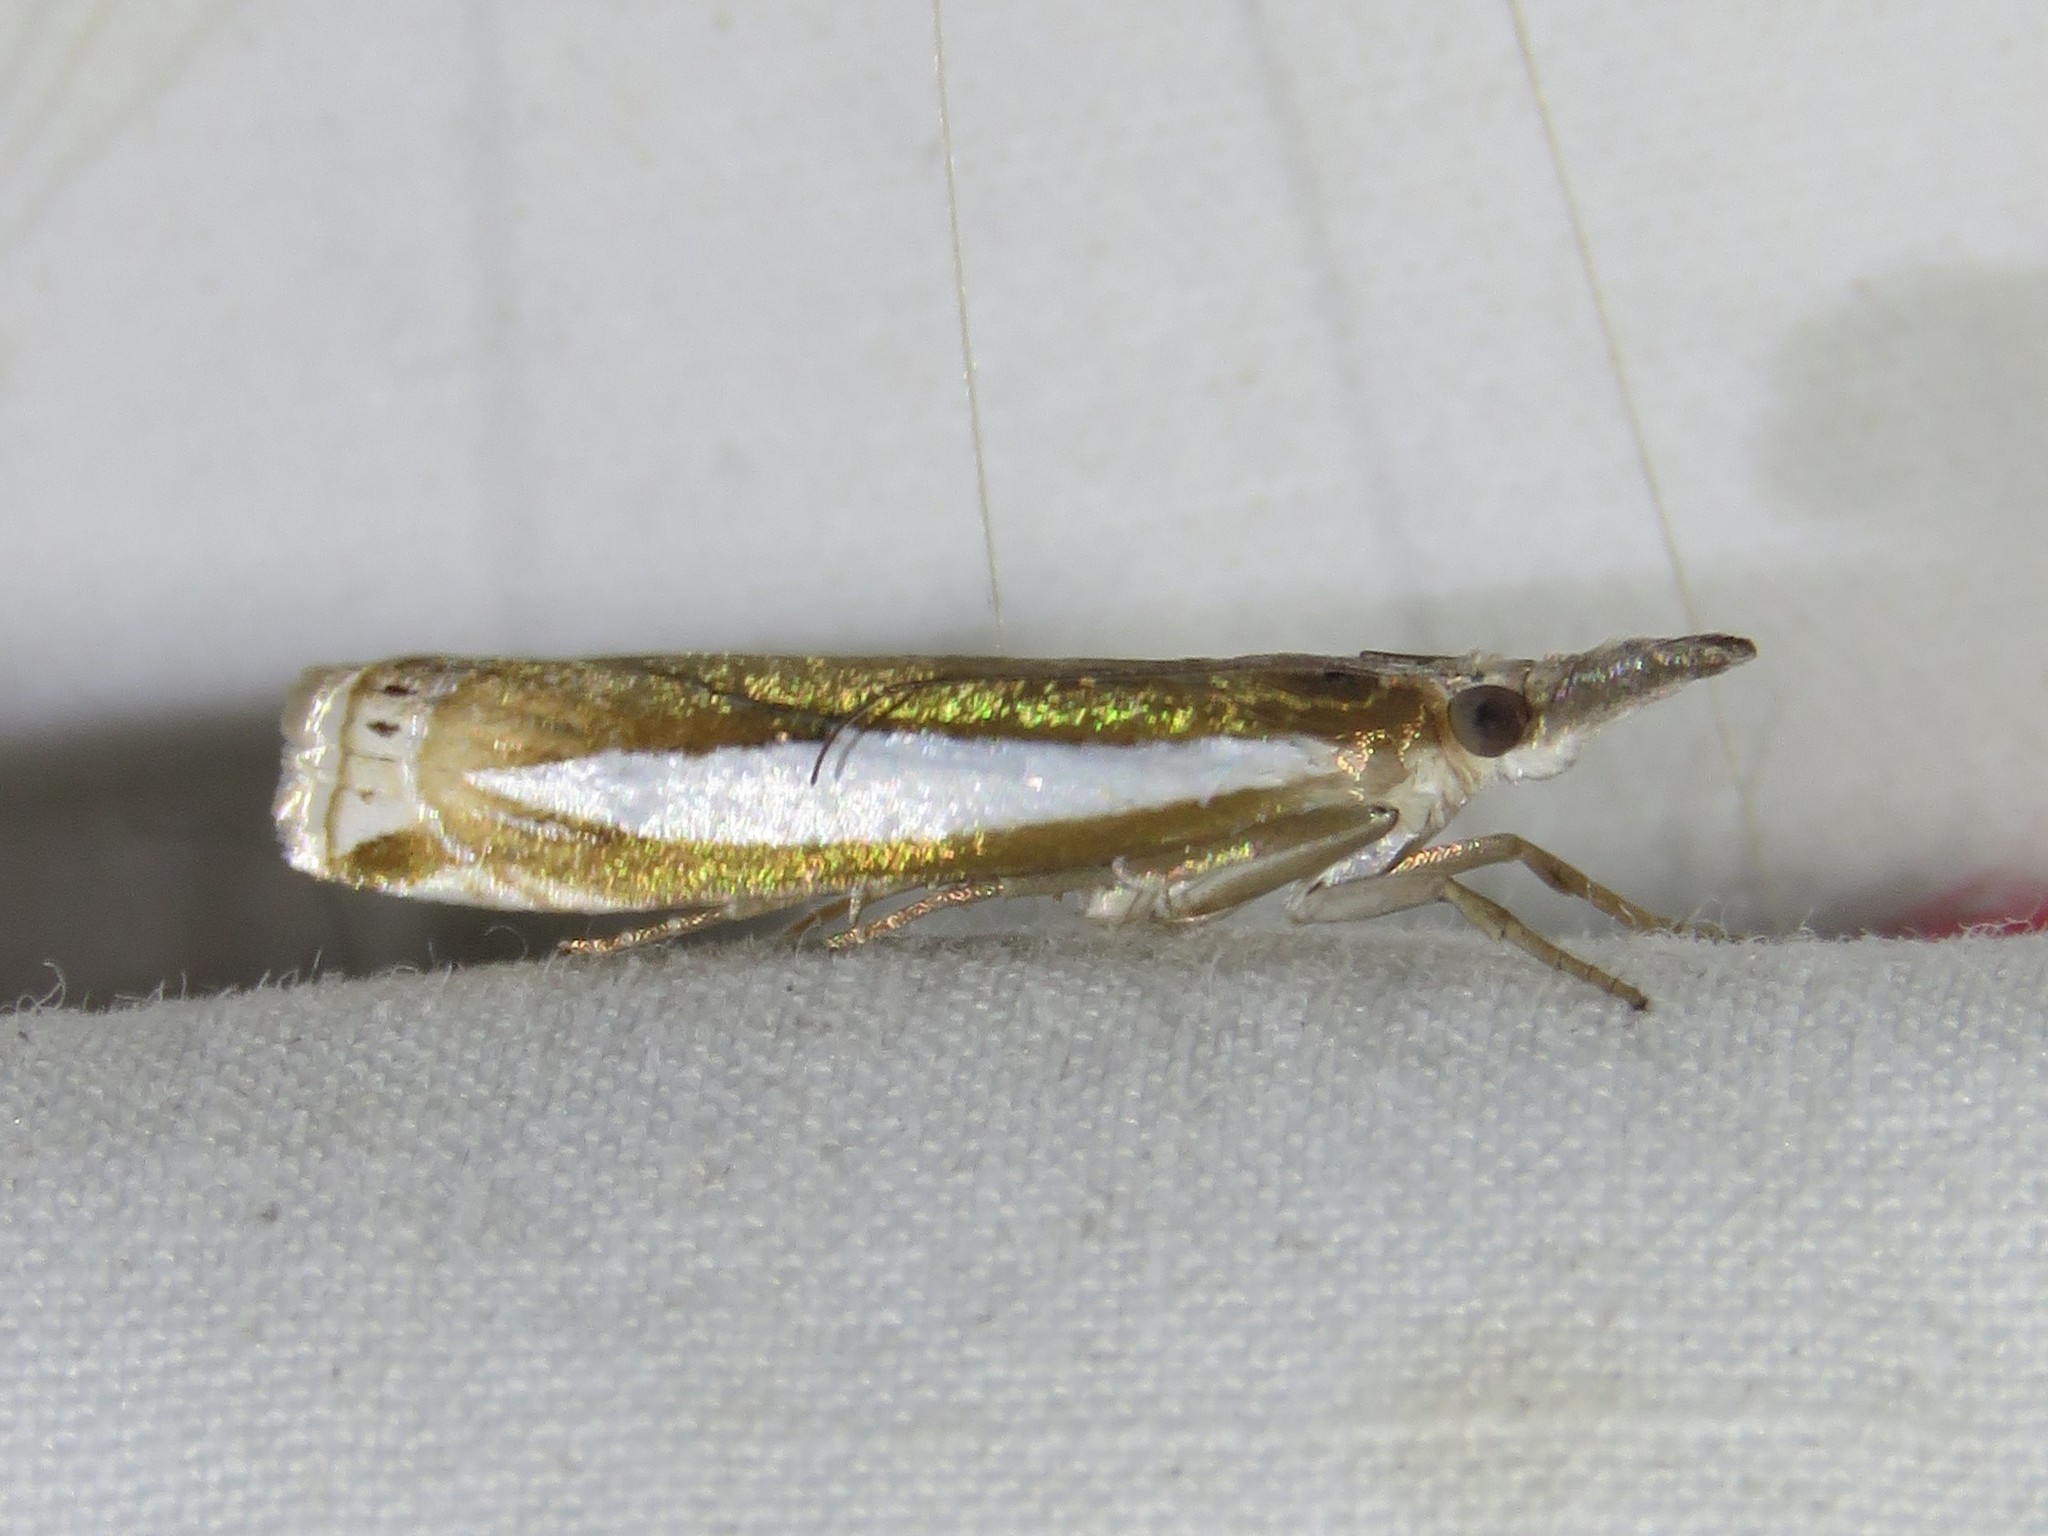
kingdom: Animalia
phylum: Arthropoda
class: Insecta
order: Lepidoptera
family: Crambidae
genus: Crambus
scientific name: Crambus praefectellus
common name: Common grass-veneer
